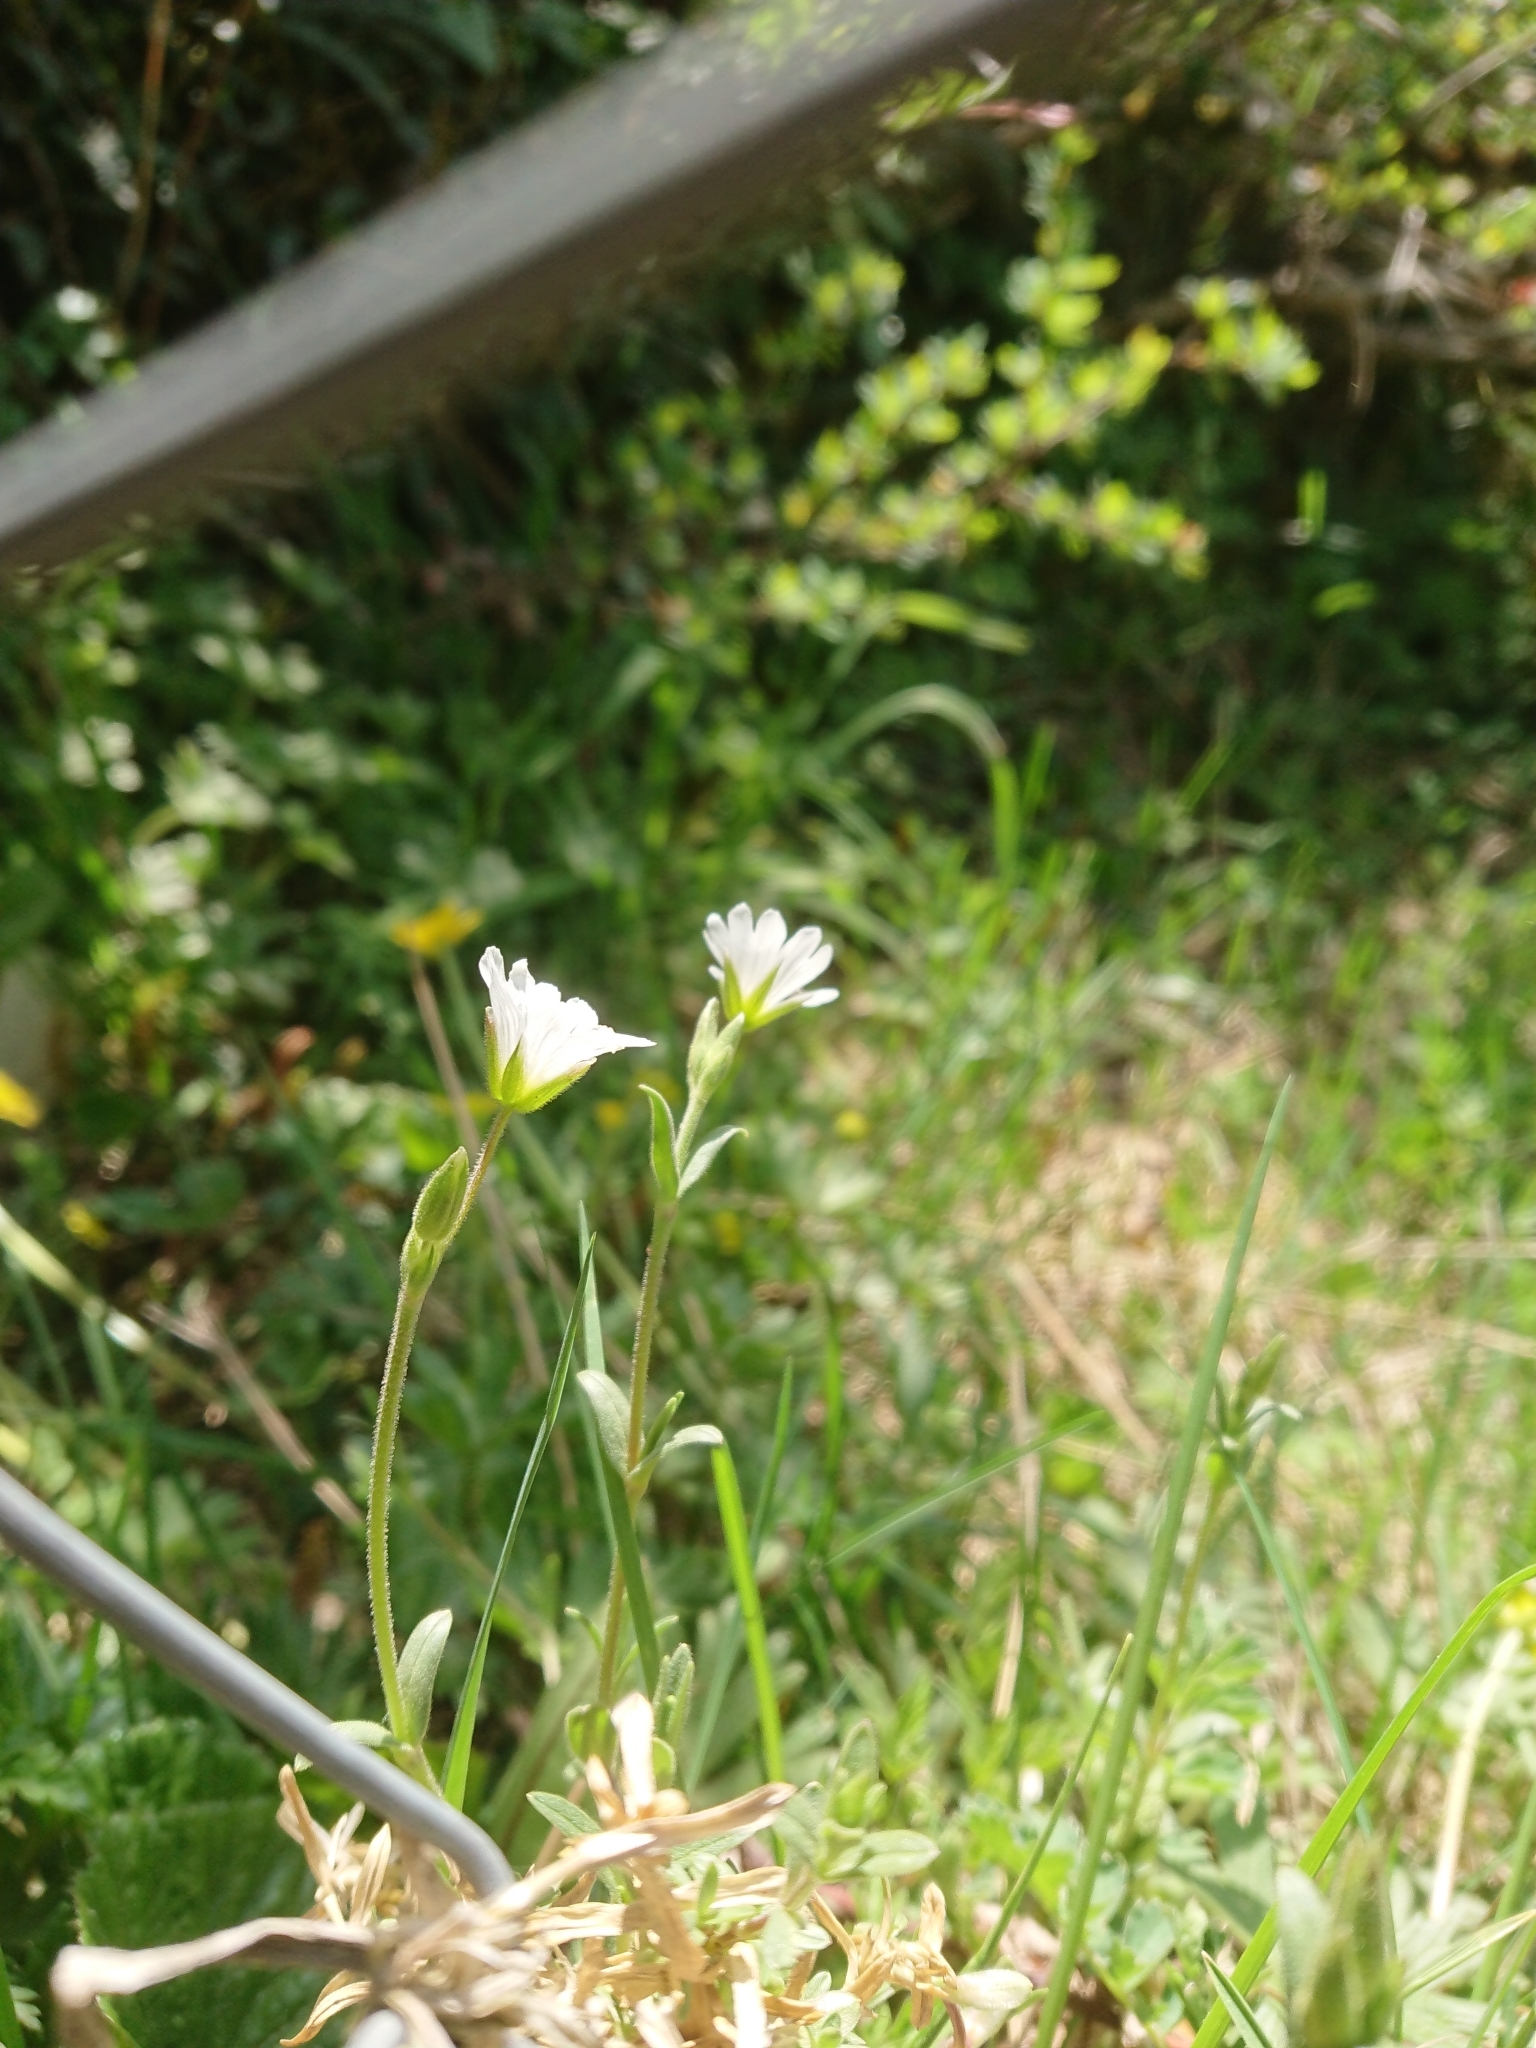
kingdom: Plantae
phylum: Tracheophyta
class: Magnoliopsida
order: Caryophyllales
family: Caryophyllaceae
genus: Cerastium
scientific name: Cerastium arvense
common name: Field mouse-ear
